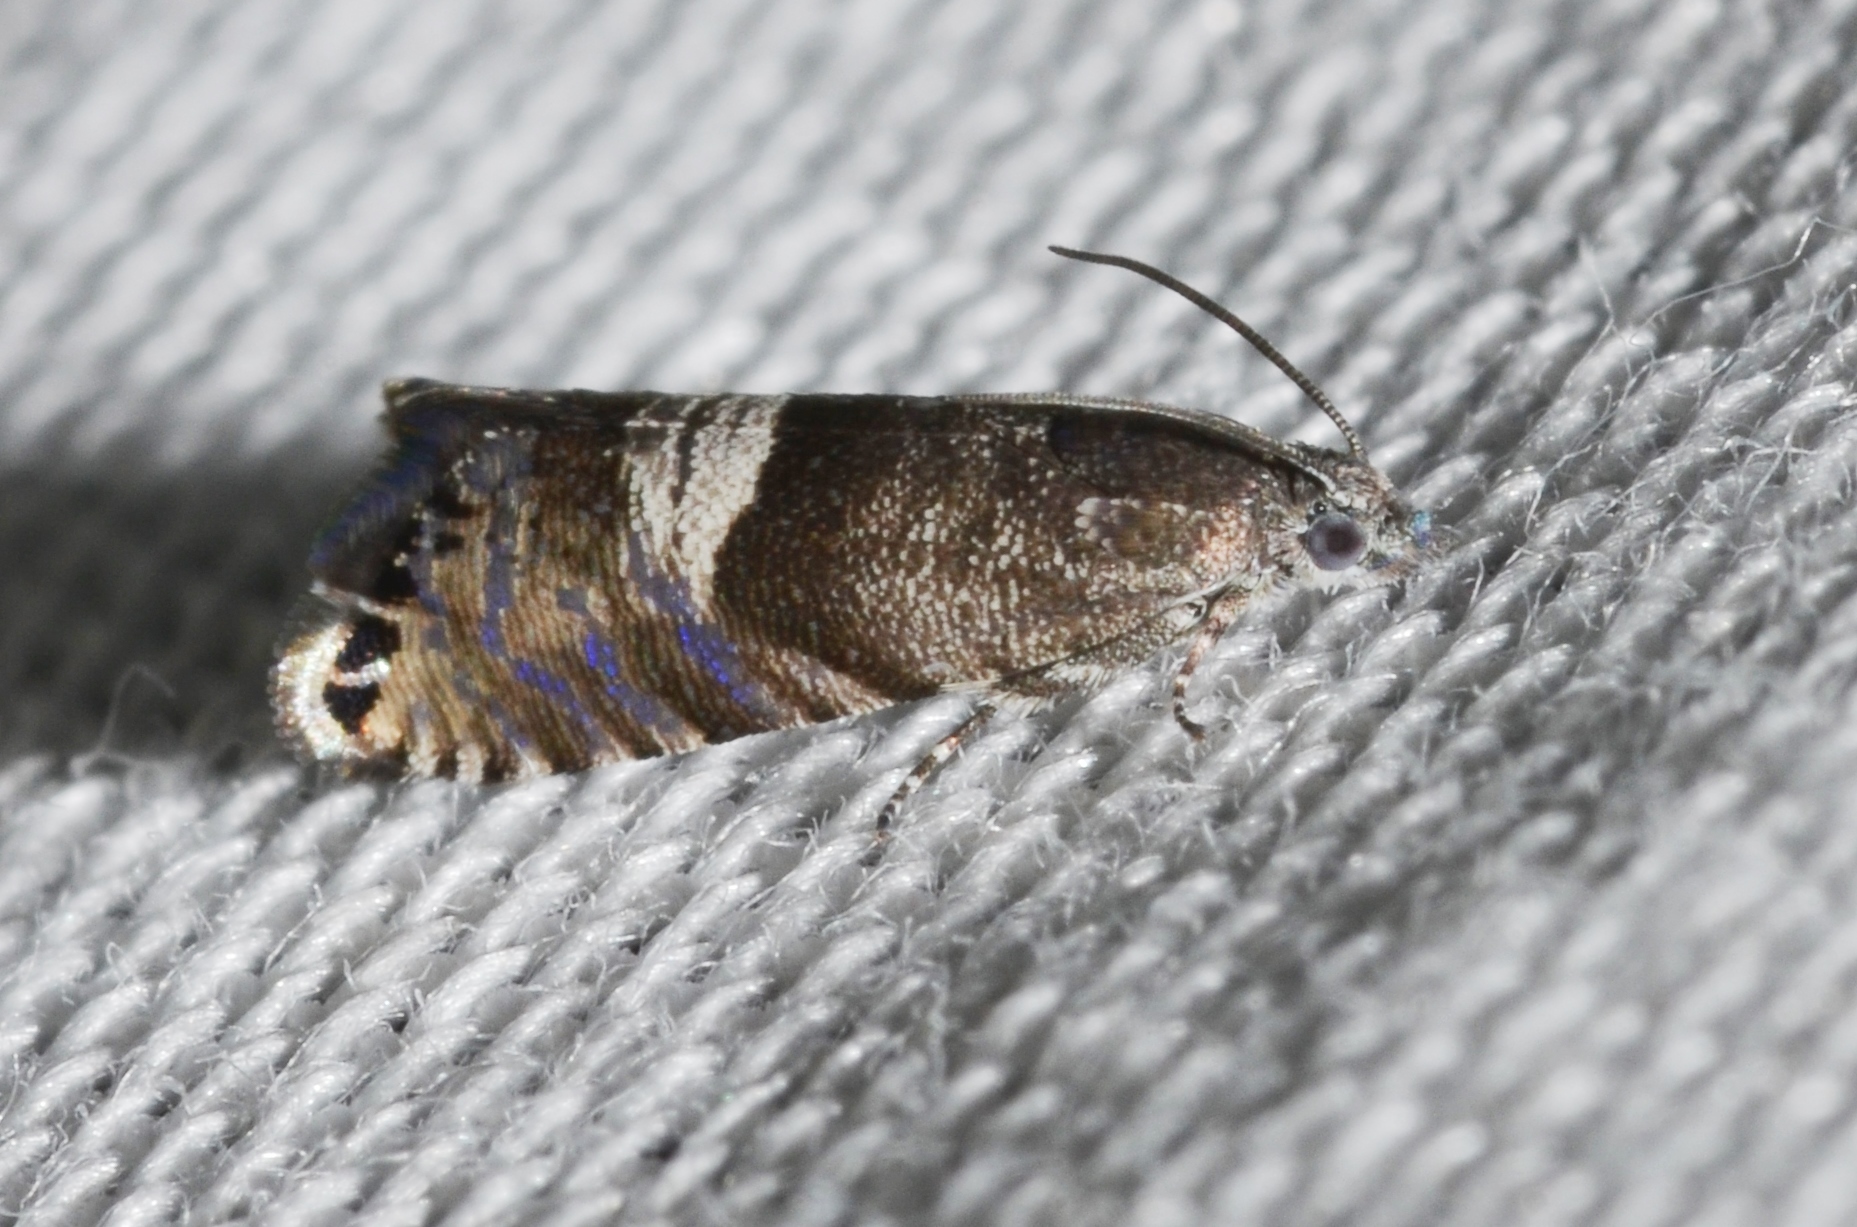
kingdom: Animalia
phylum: Arthropoda
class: Insecta
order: Lepidoptera
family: Tortricidae
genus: Sereda
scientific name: Sereda tautana
